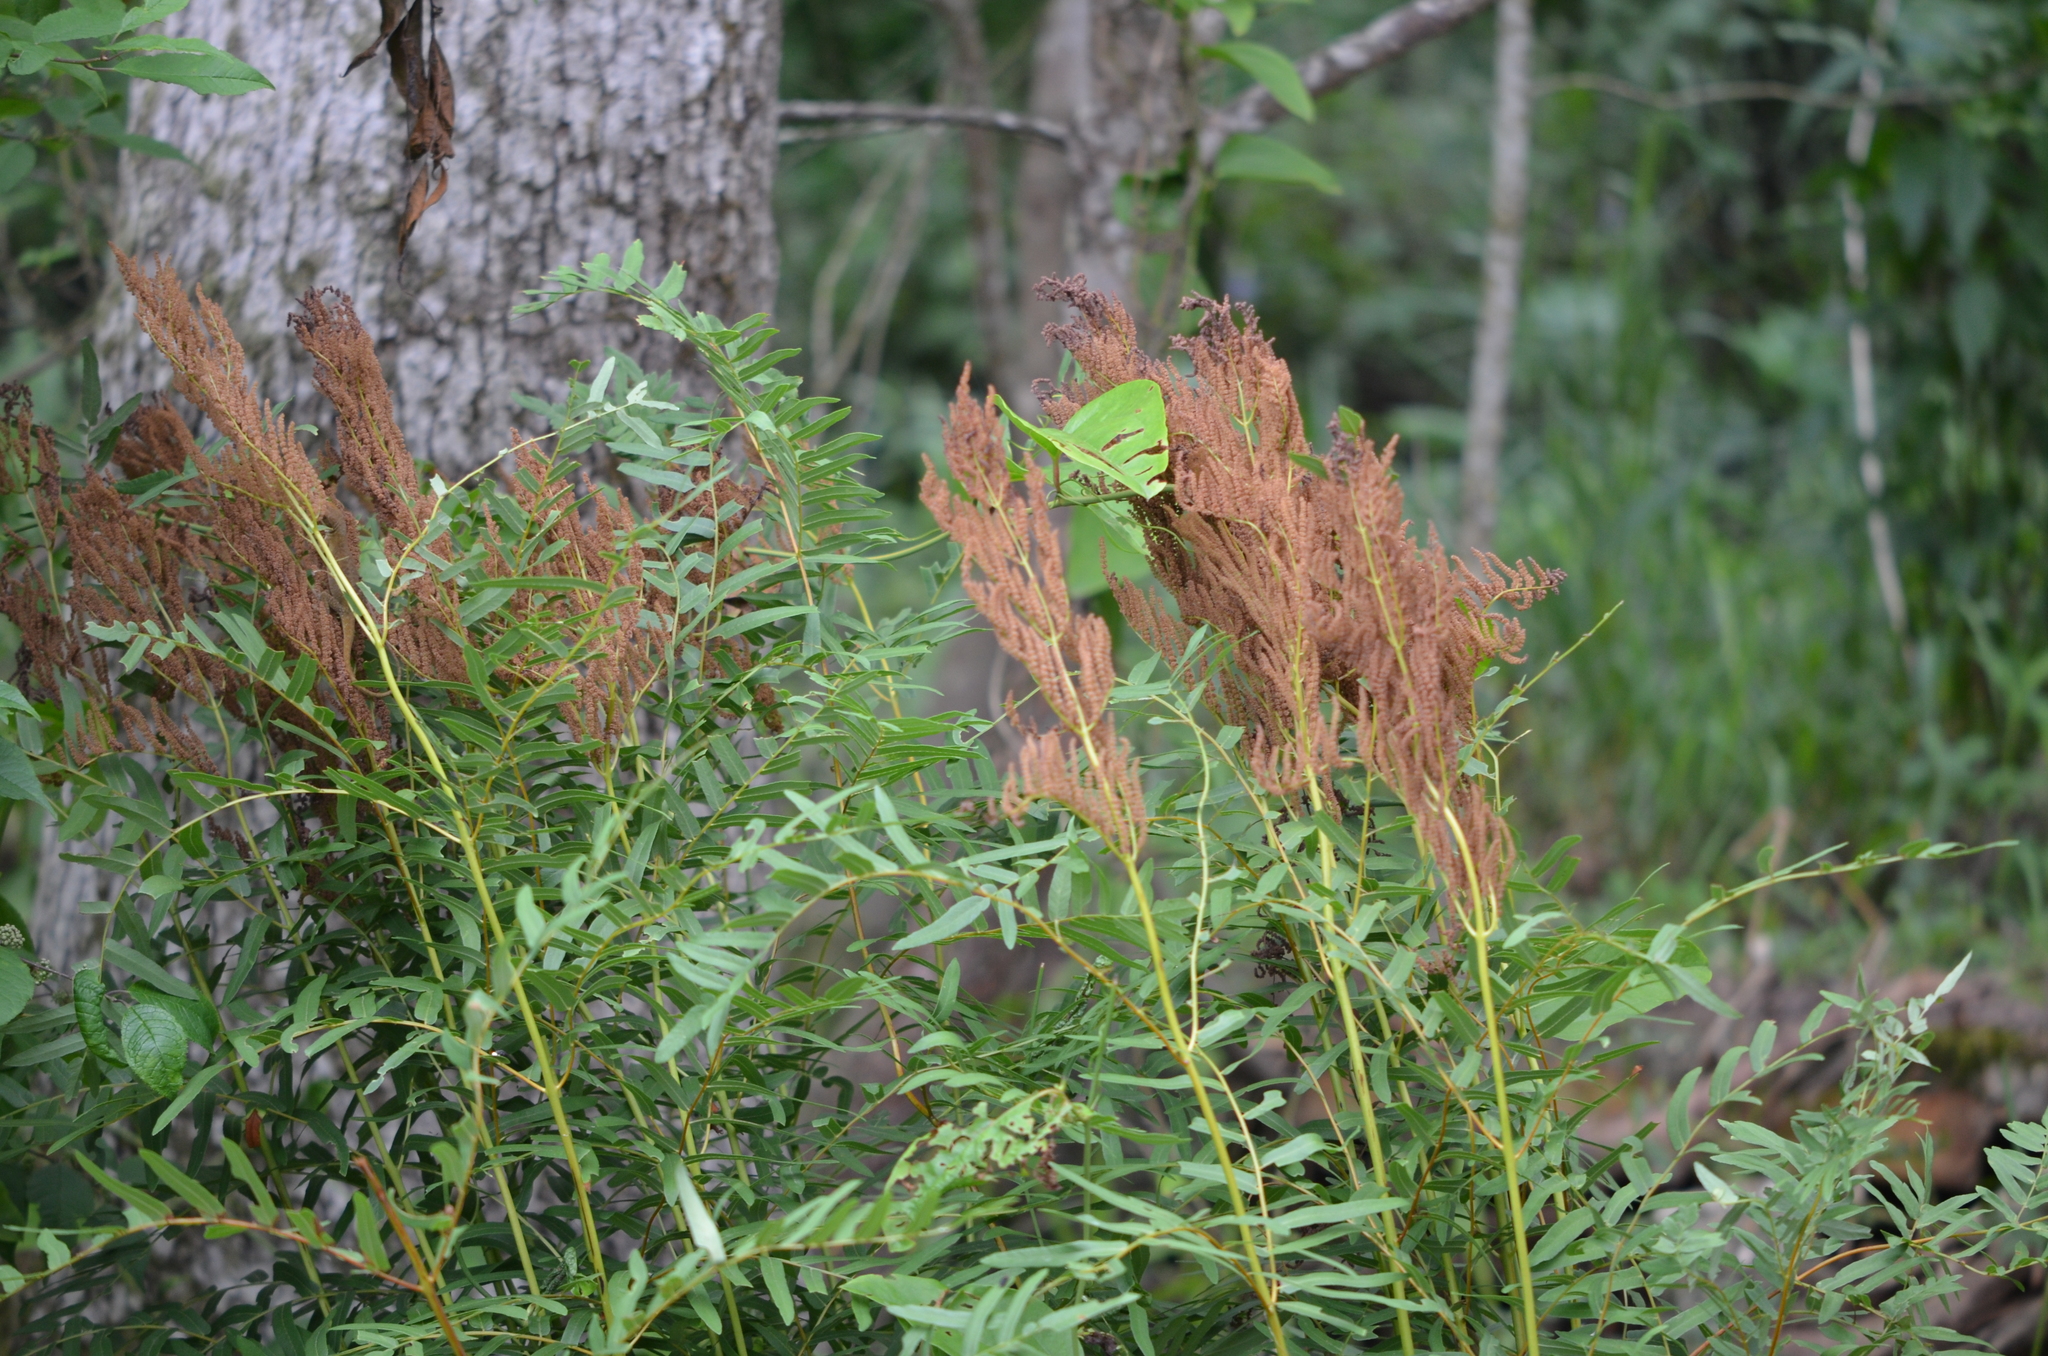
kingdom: Plantae
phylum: Tracheophyta
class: Polypodiopsida
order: Osmundales
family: Osmundaceae
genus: Osmunda
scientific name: Osmunda spectabilis
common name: American royal fern
